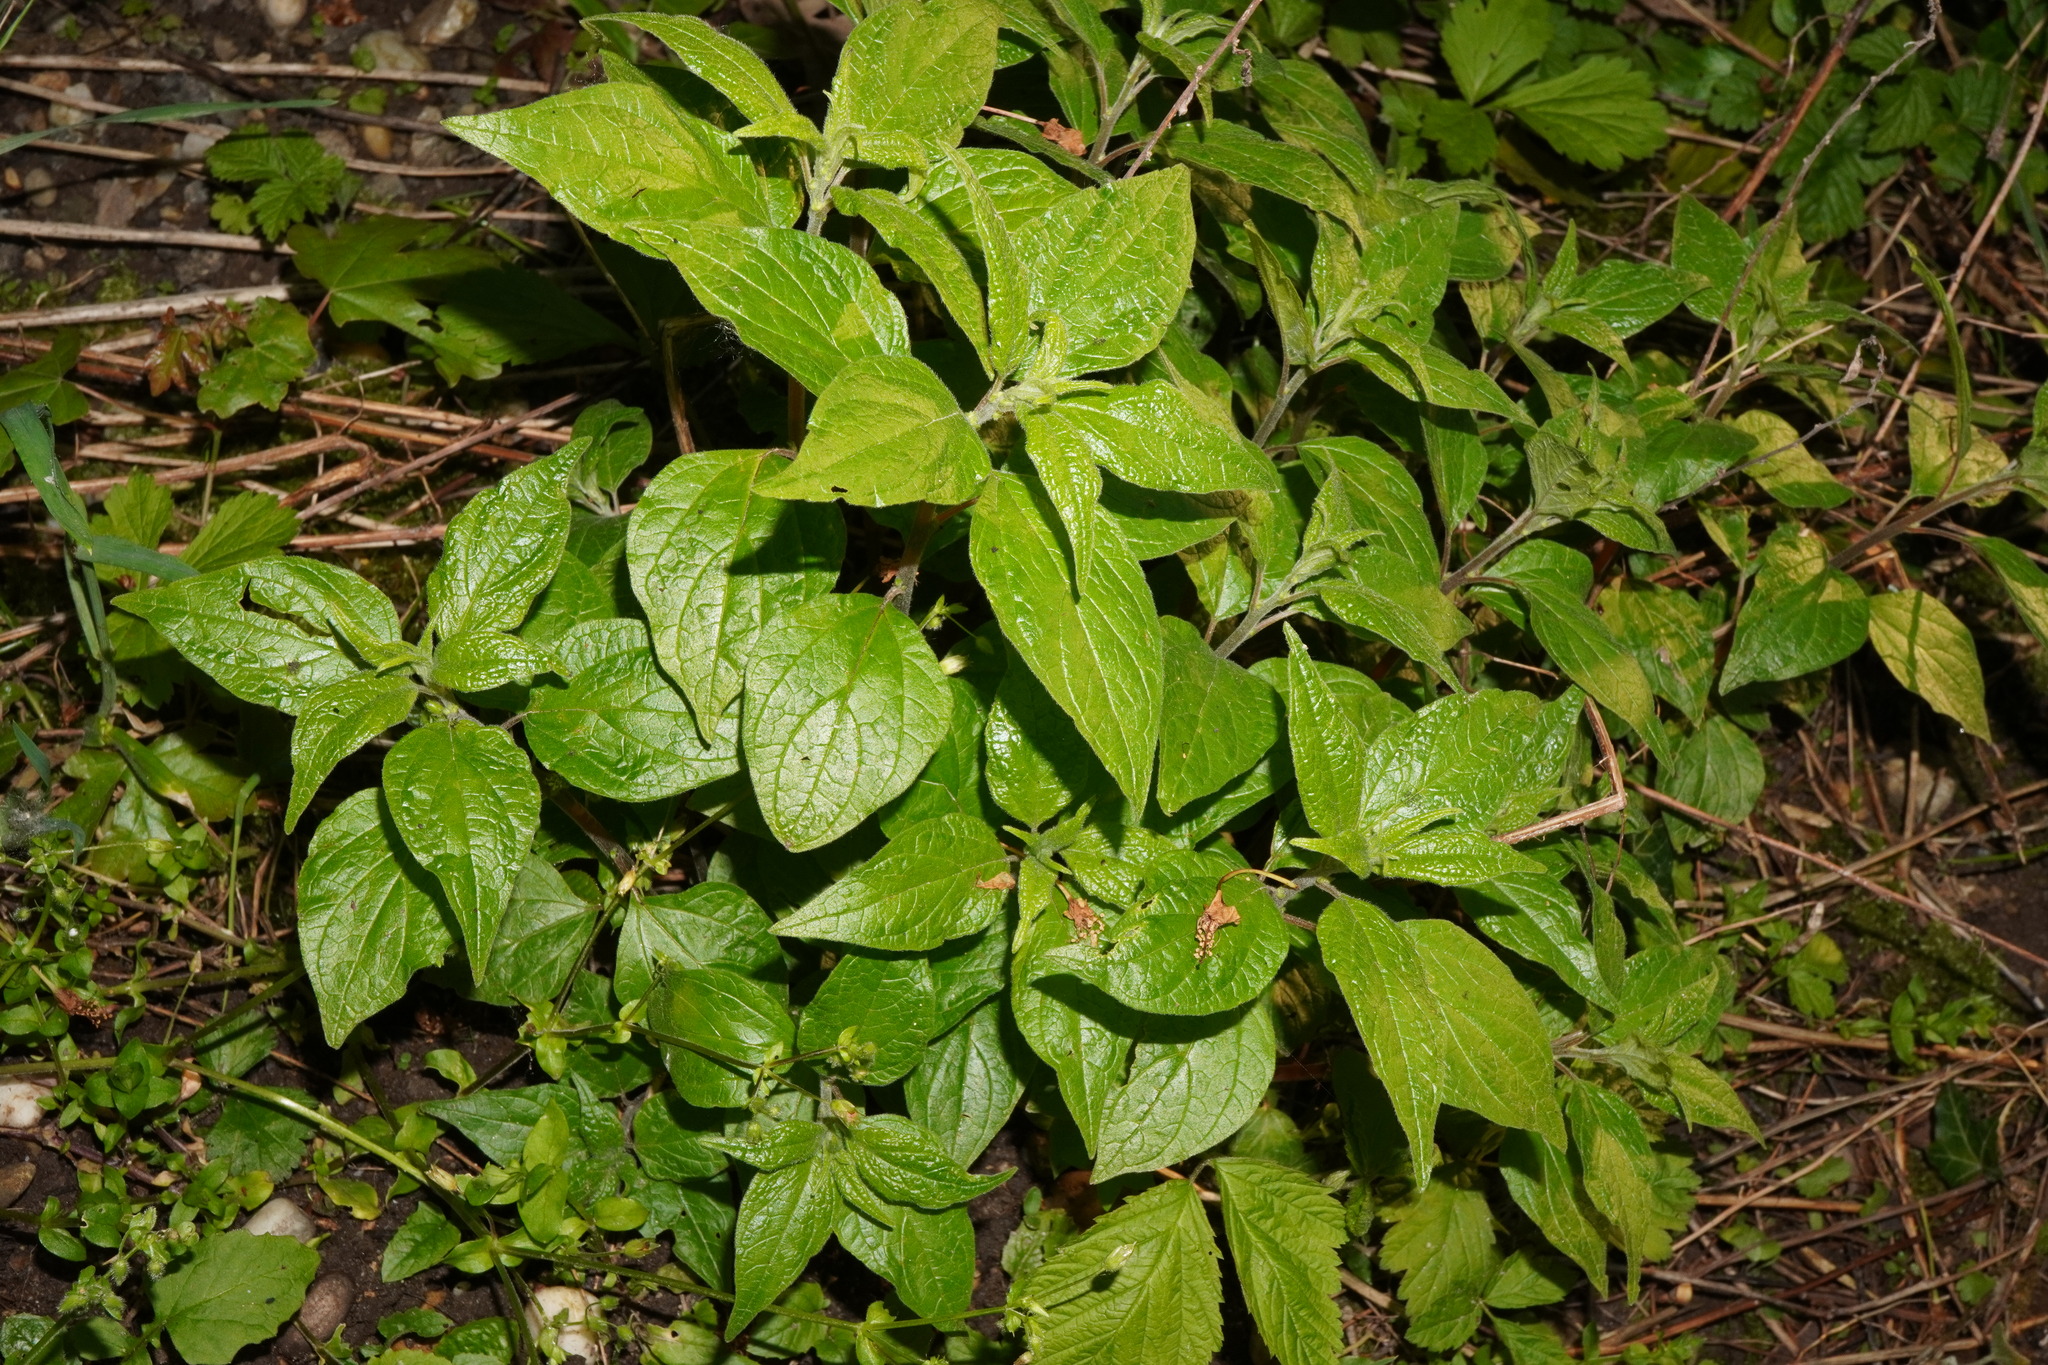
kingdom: Plantae
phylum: Tracheophyta
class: Magnoliopsida
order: Rosales
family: Urticaceae
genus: Parietaria
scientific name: Parietaria officinalis
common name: Eastern pellitory-of-the-wall
